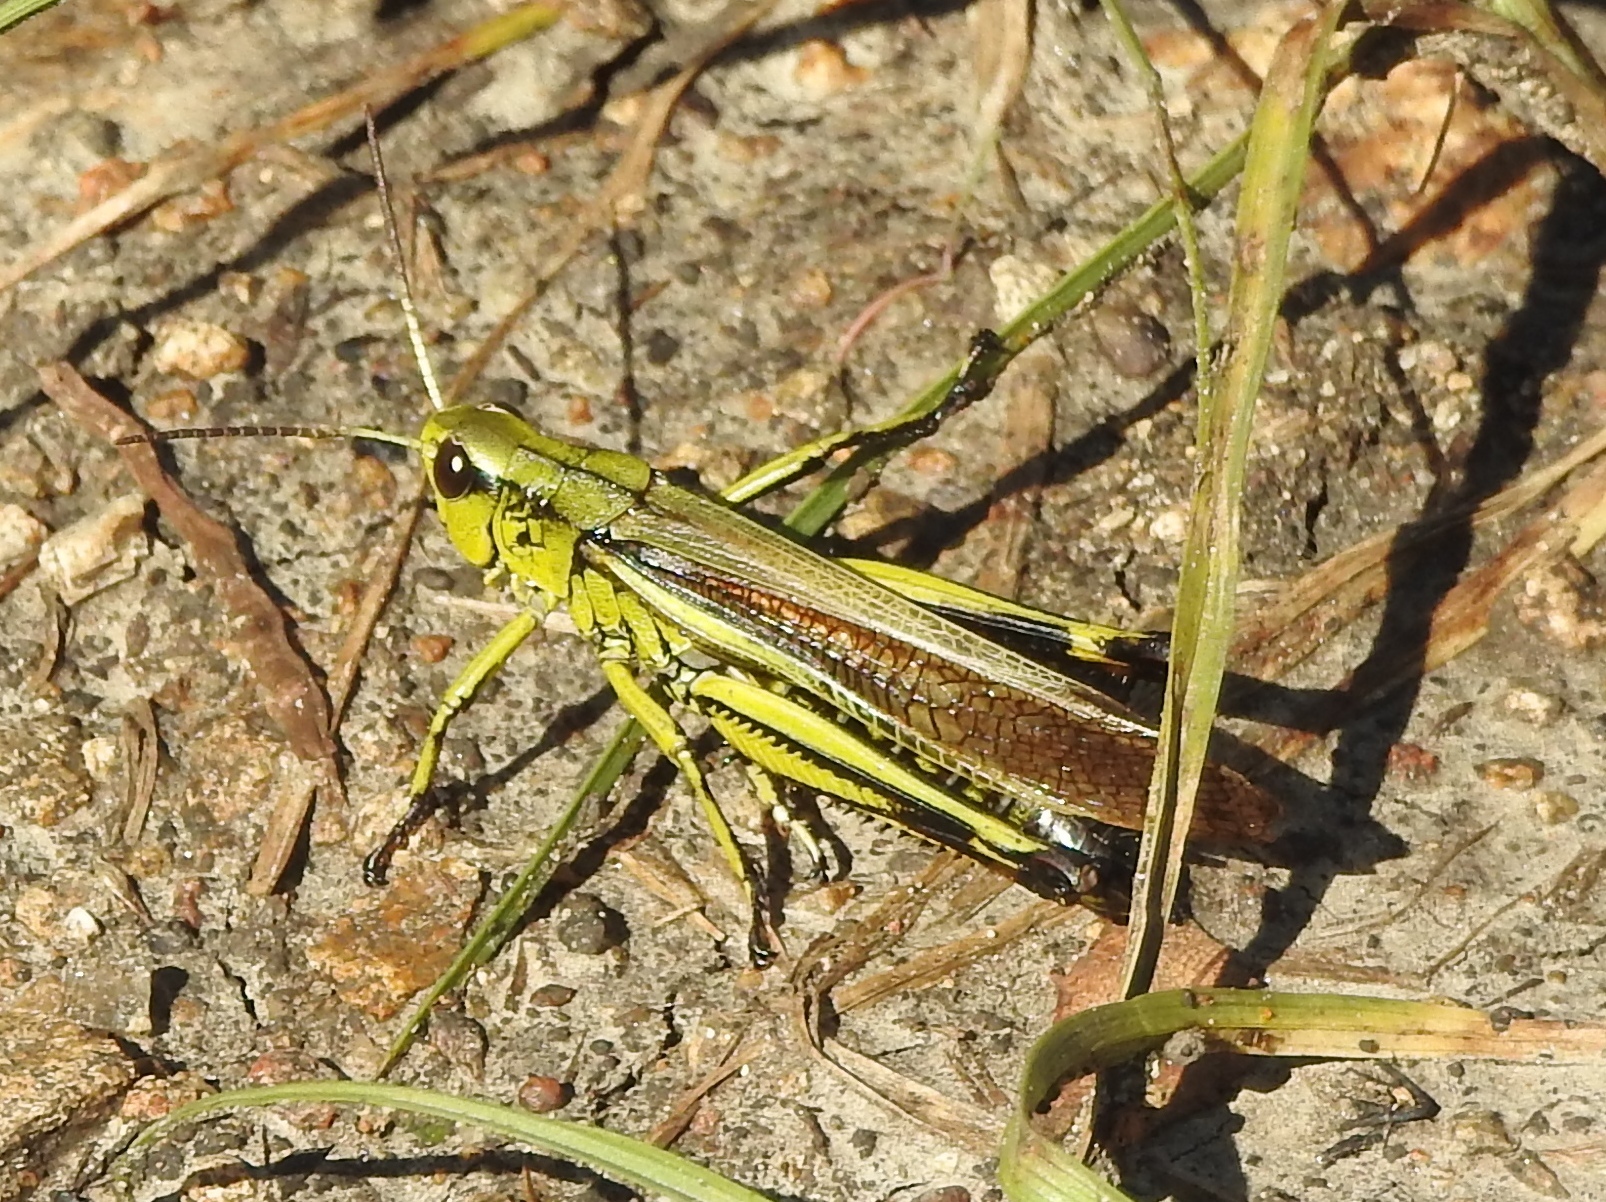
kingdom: Animalia
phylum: Arthropoda
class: Insecta
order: Orthoptera
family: Acrididae
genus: Stethophyma
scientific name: Stethophyma grossum
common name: Large marsh grasshopper
